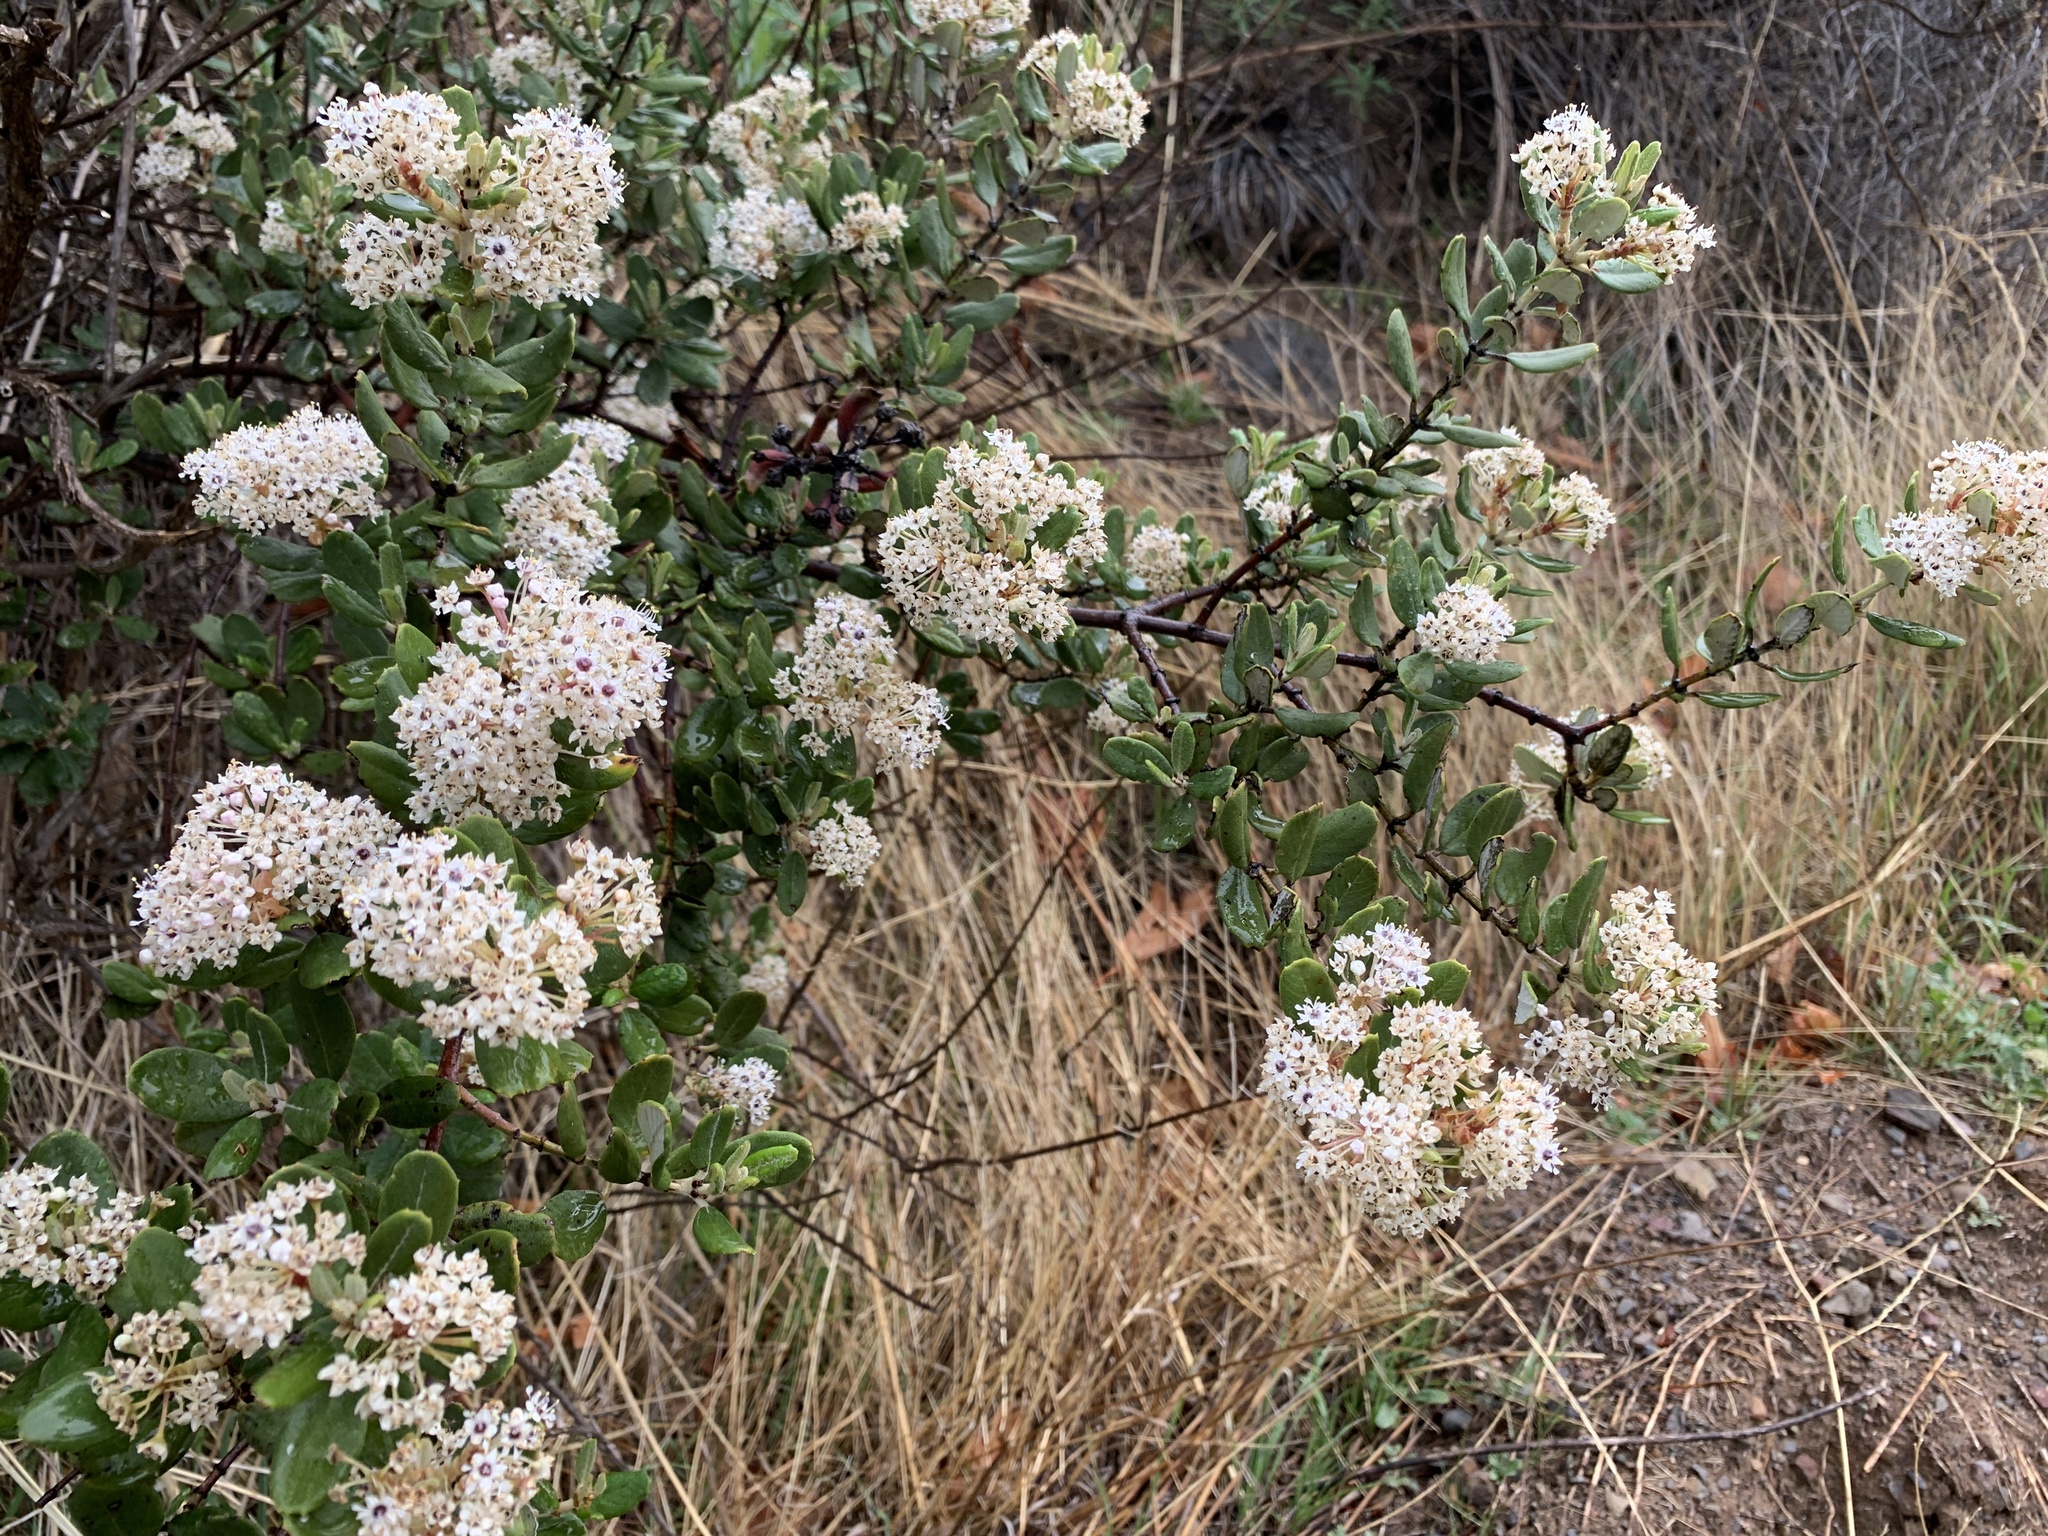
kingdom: Plantae
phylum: Tracheophyta
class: Magnoliopsida
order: Rosales
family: Rhamnaceae
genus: Ceanothus
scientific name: Ceanothus crassifolius
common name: Hoaryleaf ceanothus
